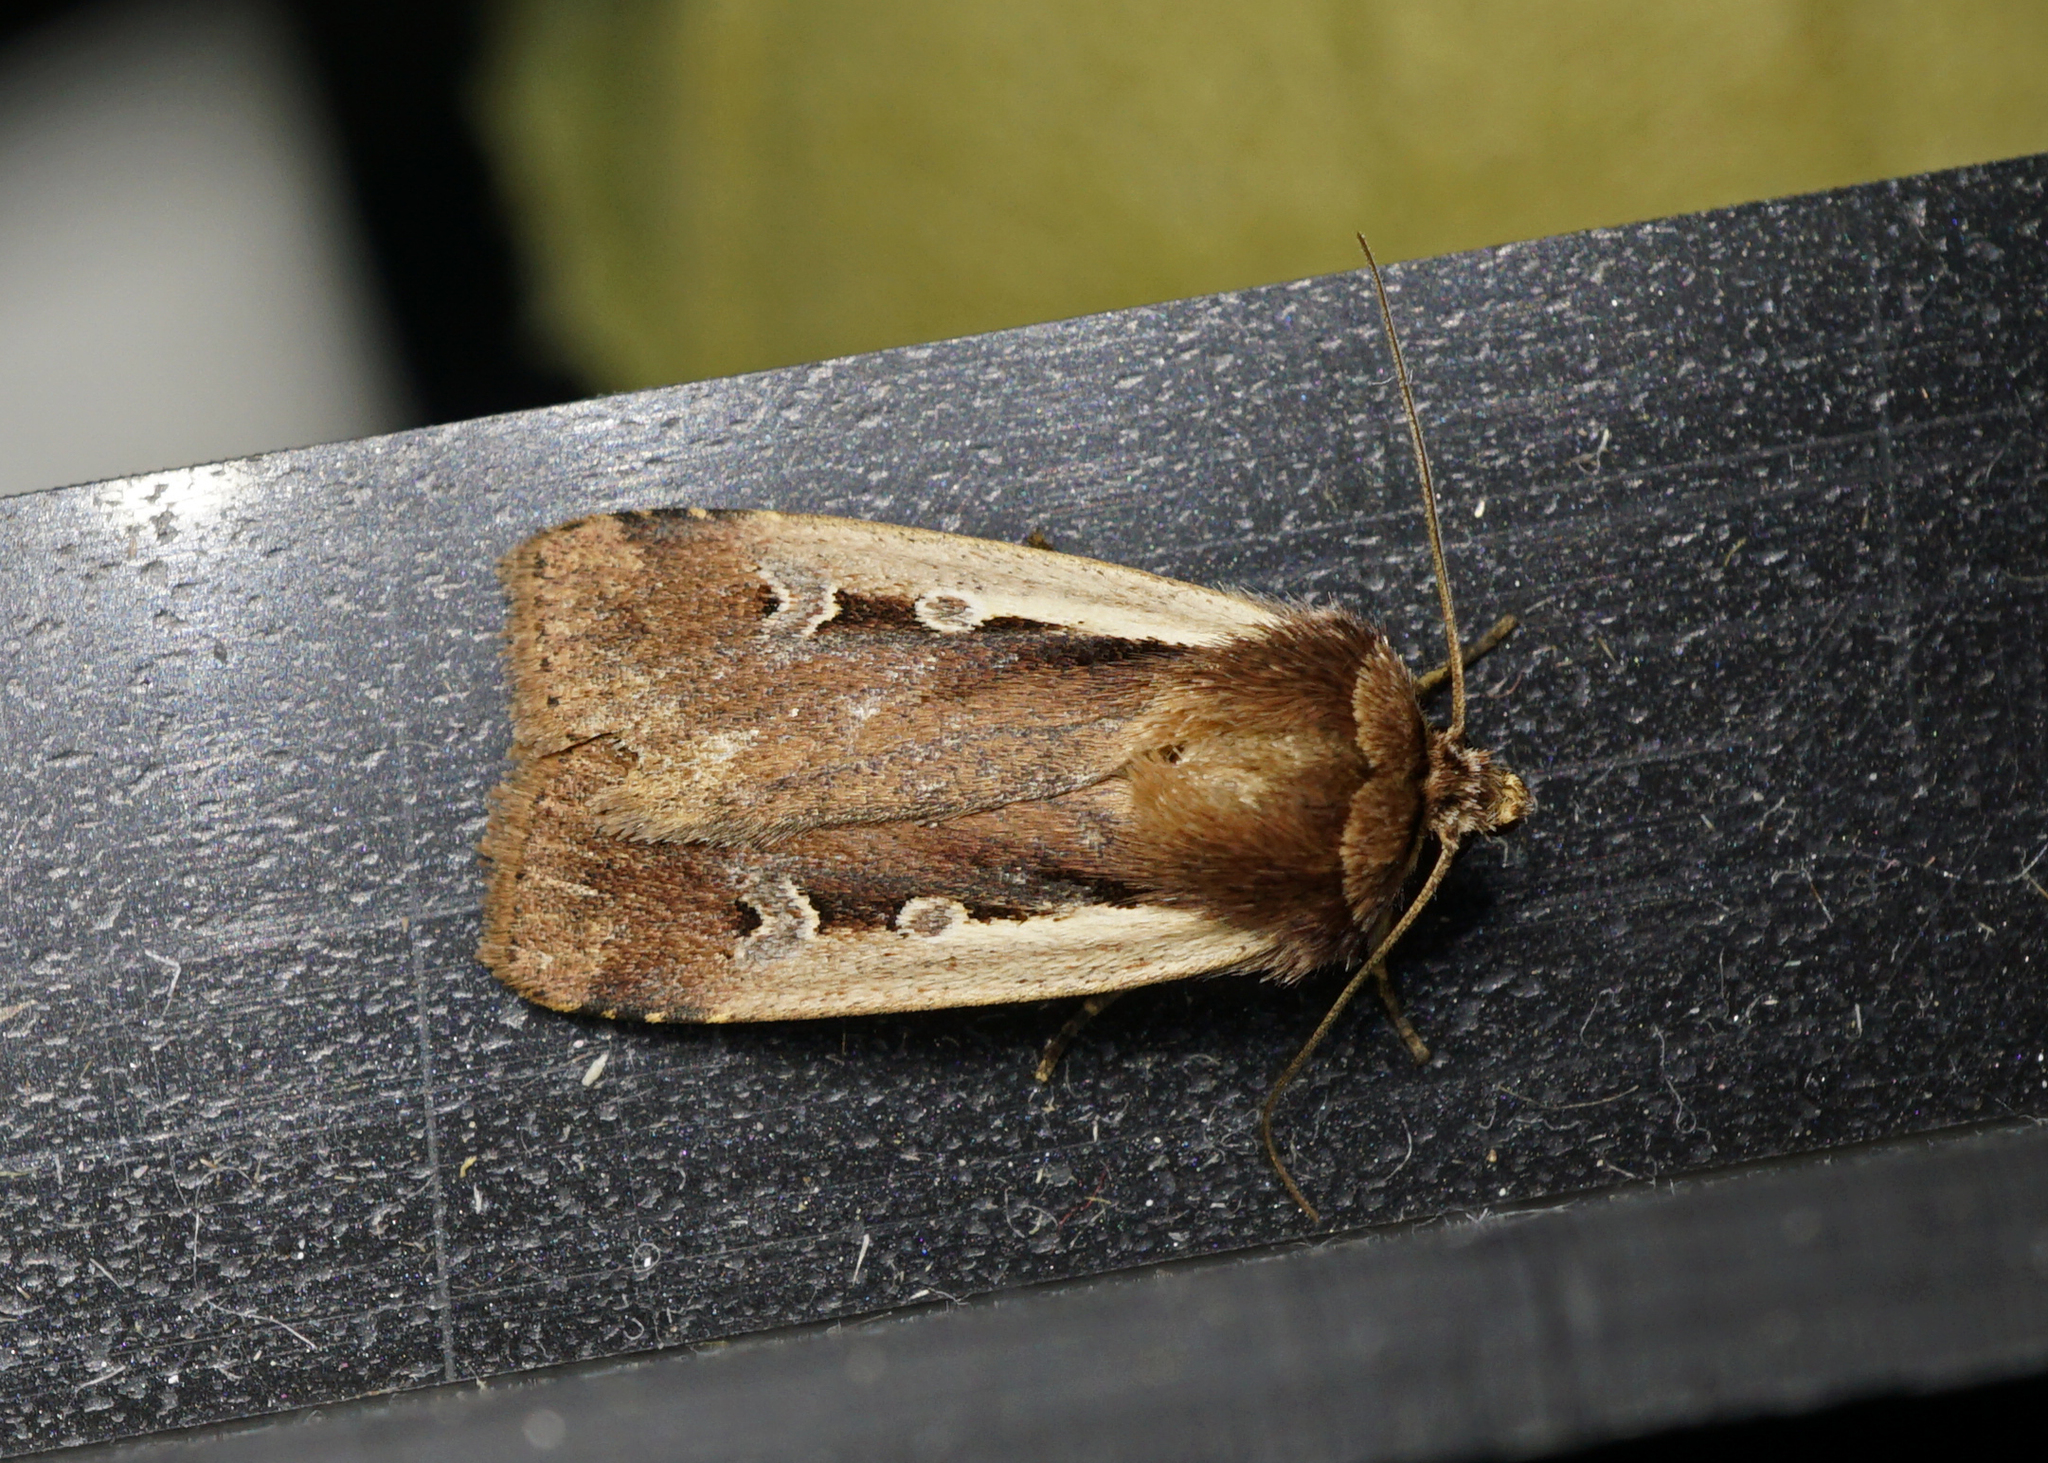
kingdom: Animalia
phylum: Arthropoda
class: Insecta
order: Lepidoptera
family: Noctuidae
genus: Ochropleura
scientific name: Ochropleura plecta
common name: Flame shoulder
